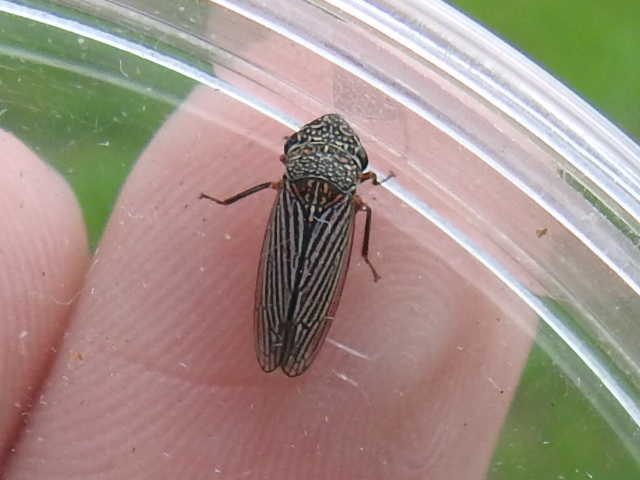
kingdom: Animalia
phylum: Arthropoda
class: Insecta
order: Hemiptera
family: Cicadellidae
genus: Cuerna
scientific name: Cuerna costalis
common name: Lateral-lined sharpshooter
